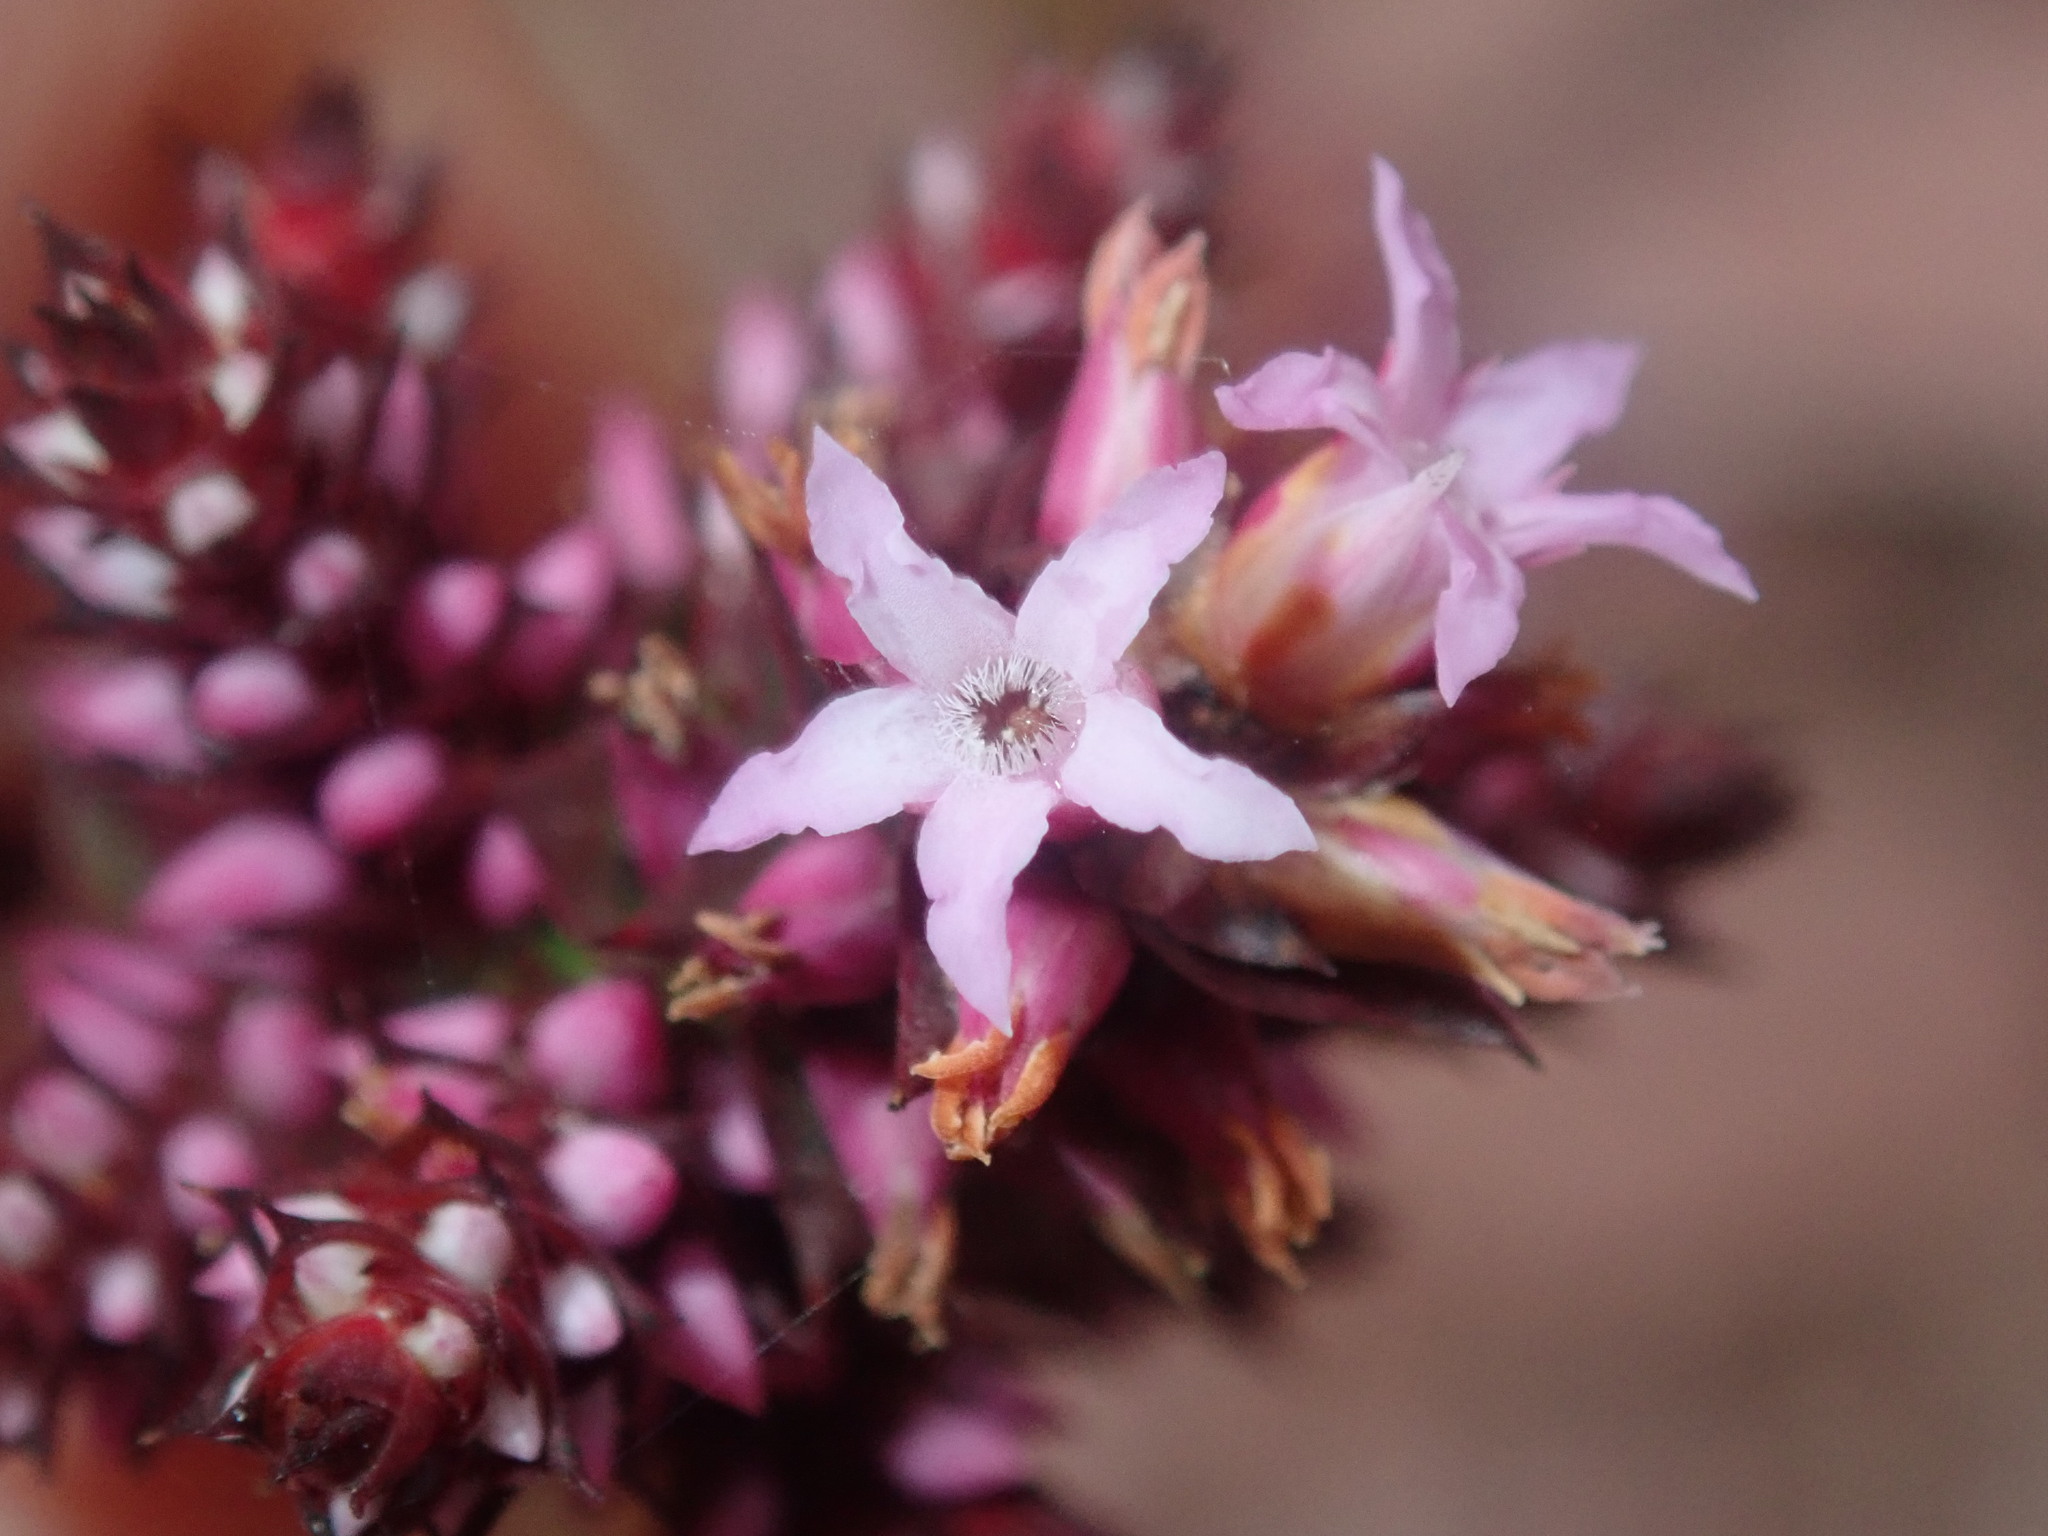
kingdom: Plantae
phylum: Tracheophyta
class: Magnoliopsida
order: Ericales
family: Ericaceae
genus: Andersonia
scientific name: Andersonia simplex
